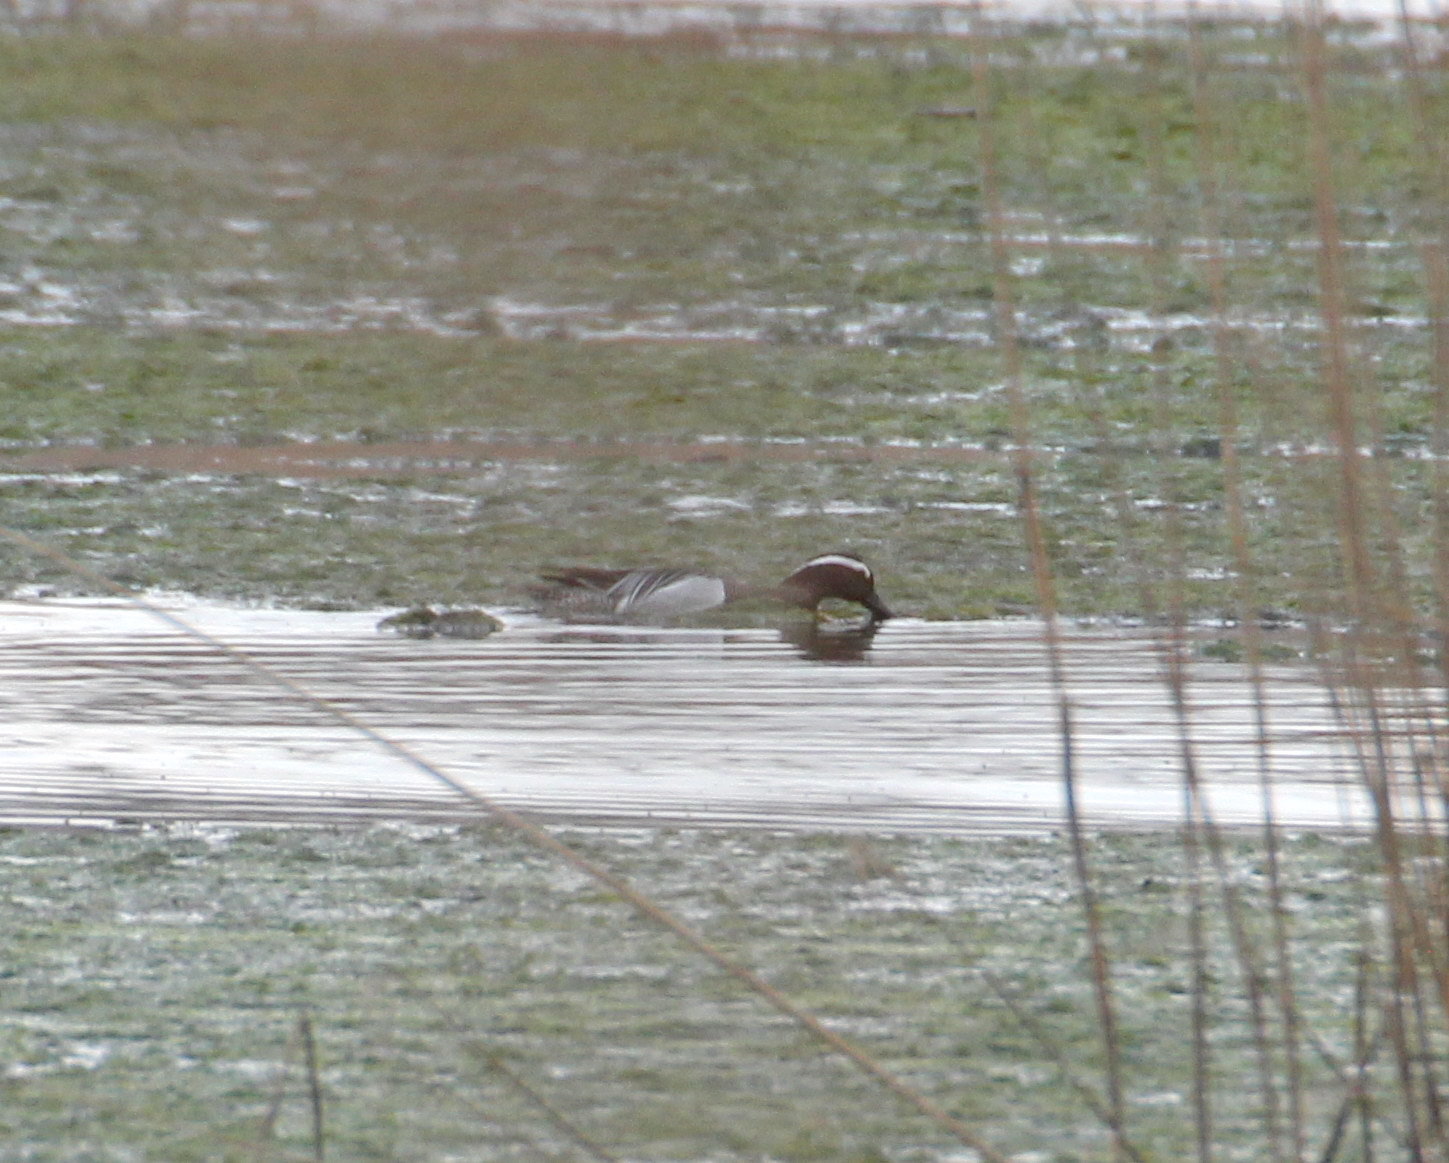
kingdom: Animalia
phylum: Chordata
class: Aves
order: Anseriformes
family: Anatidae
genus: Spatula
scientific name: Spatula querquedula
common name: Garganey
